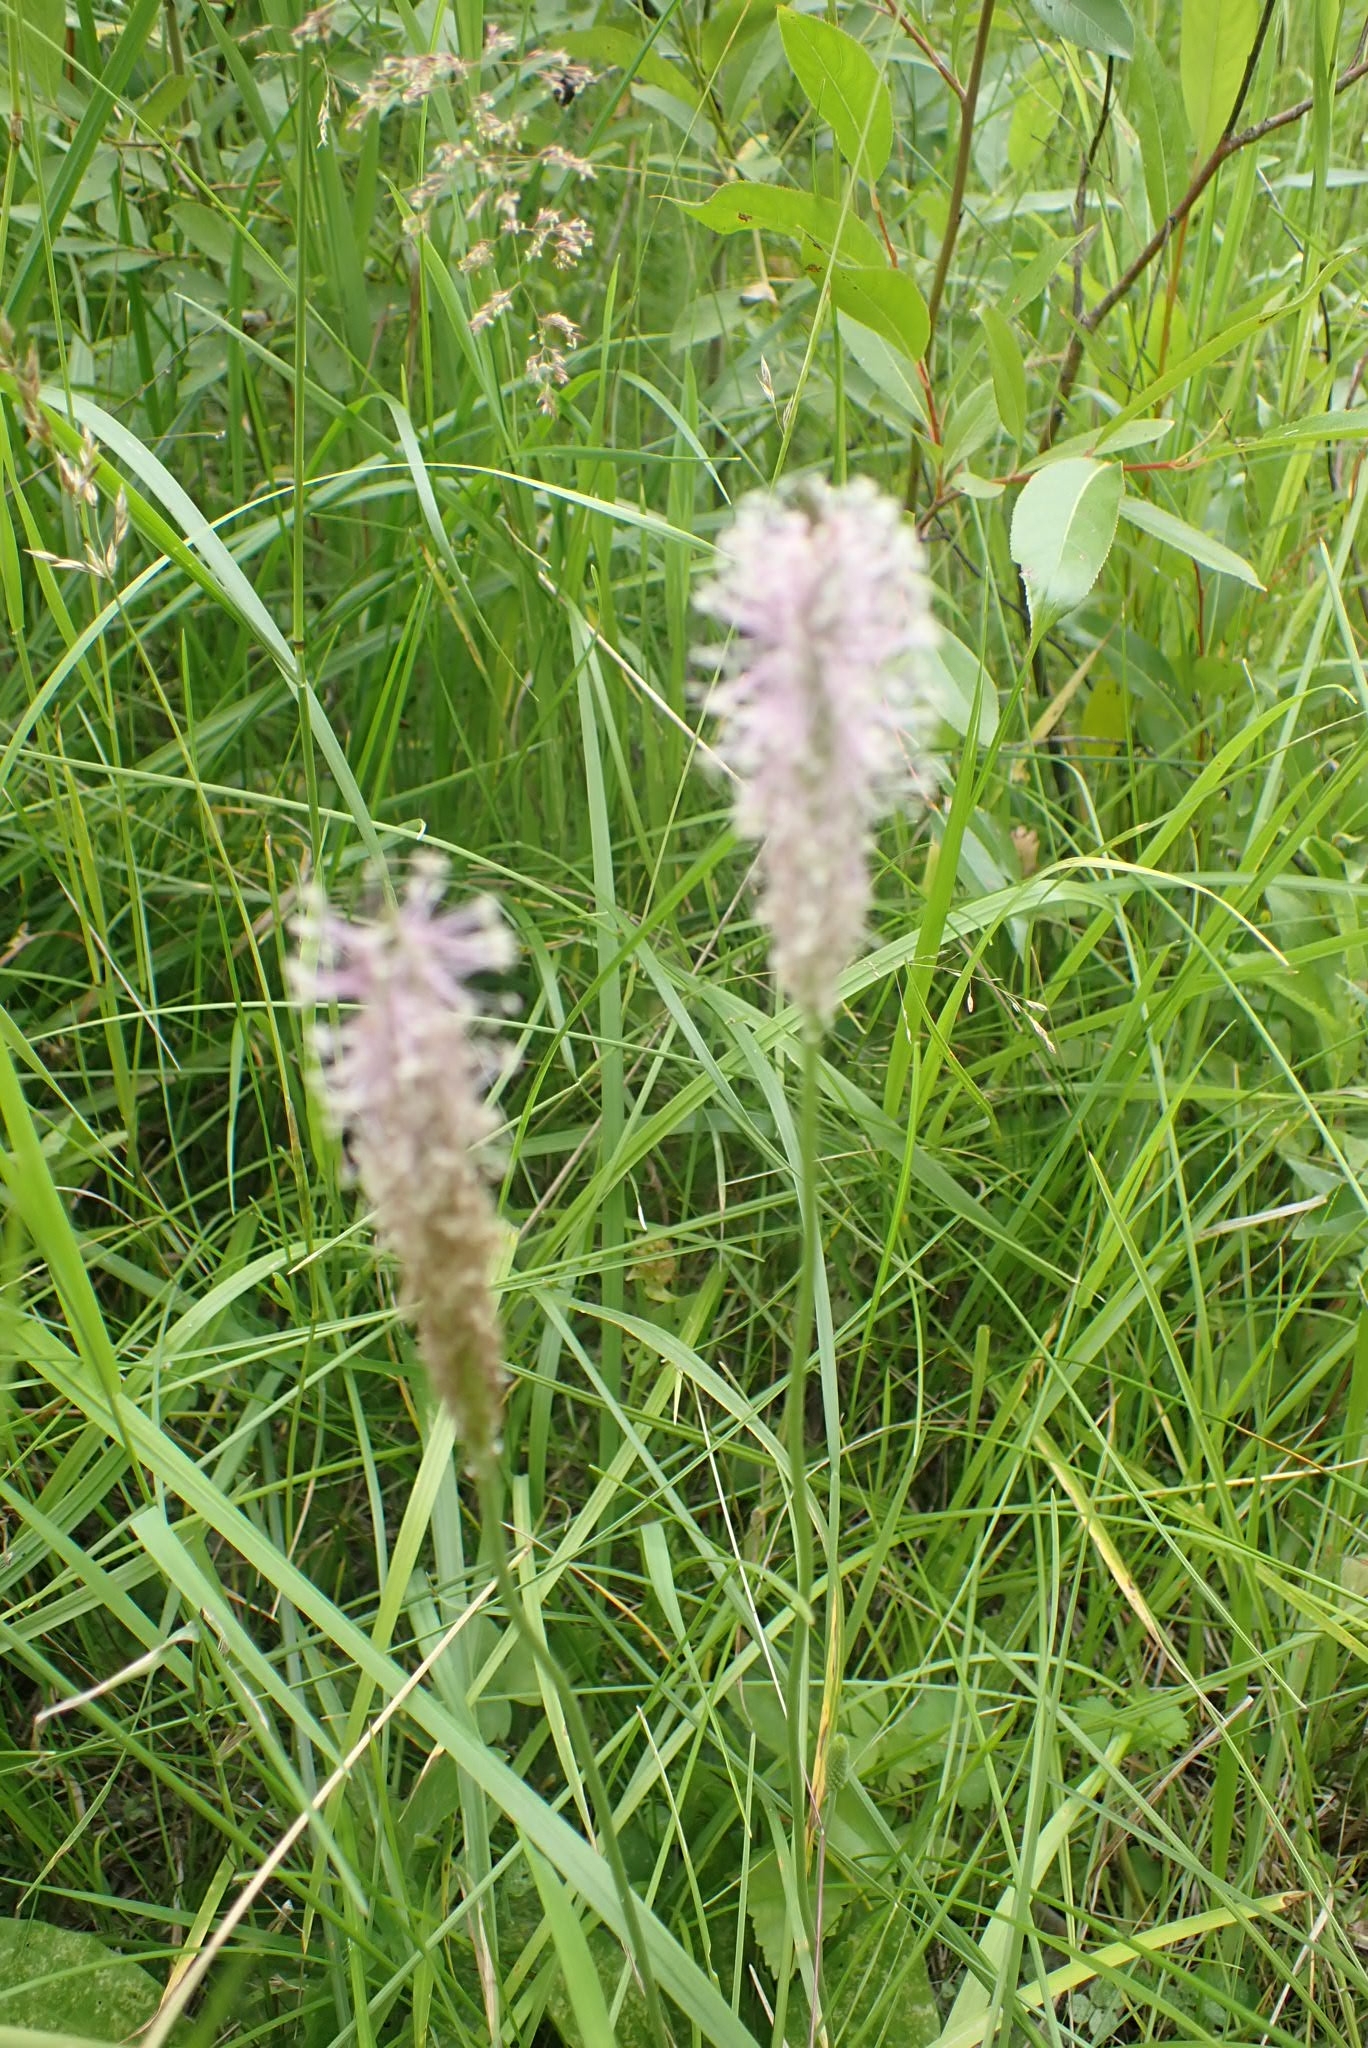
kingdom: Plantae
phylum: Tracheophyta
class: Magnoliopsida
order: Lamiales
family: Plantaginaceae
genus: Plantago
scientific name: Plantago media
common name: Hoary plantain
